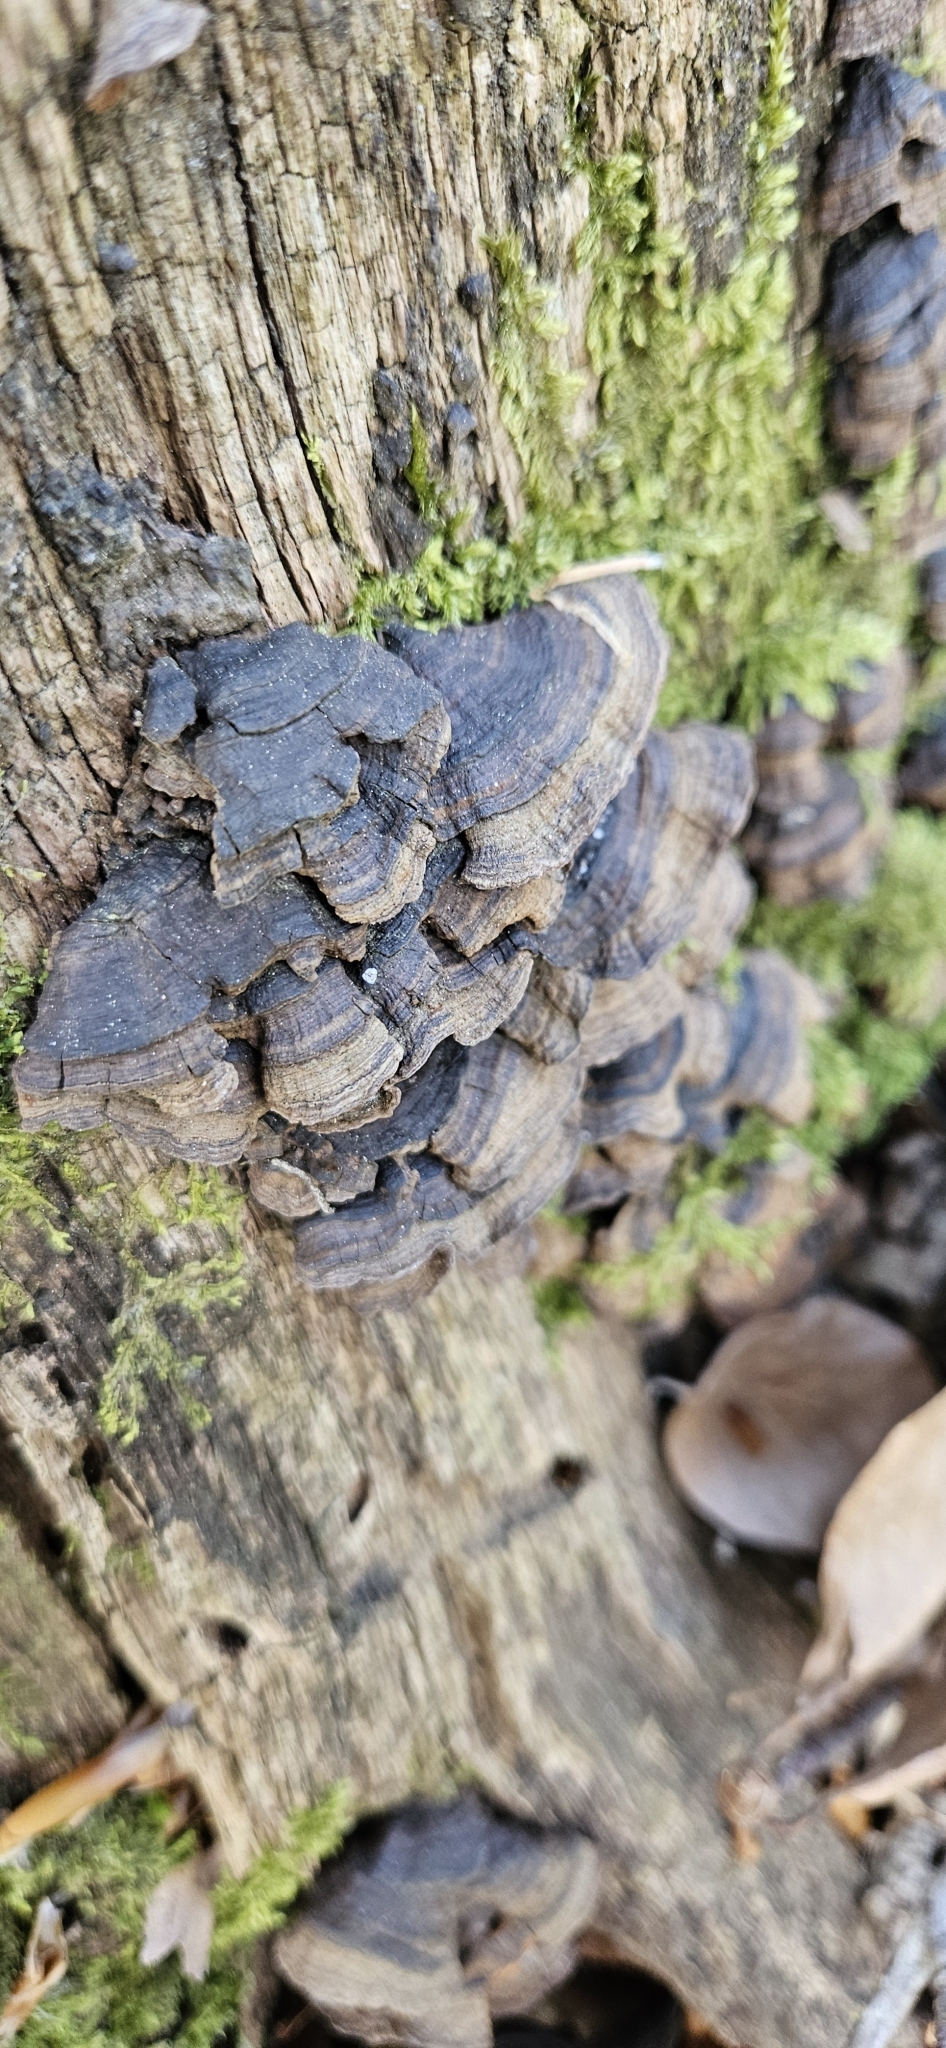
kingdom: Fungi
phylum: Basidiomycota
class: Agaricomycetes
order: Hymenochaetales
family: Hymenochaetaceae
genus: Hymenochaete
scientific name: Hymenochaete rubiginosa
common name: Oak curtain crust
